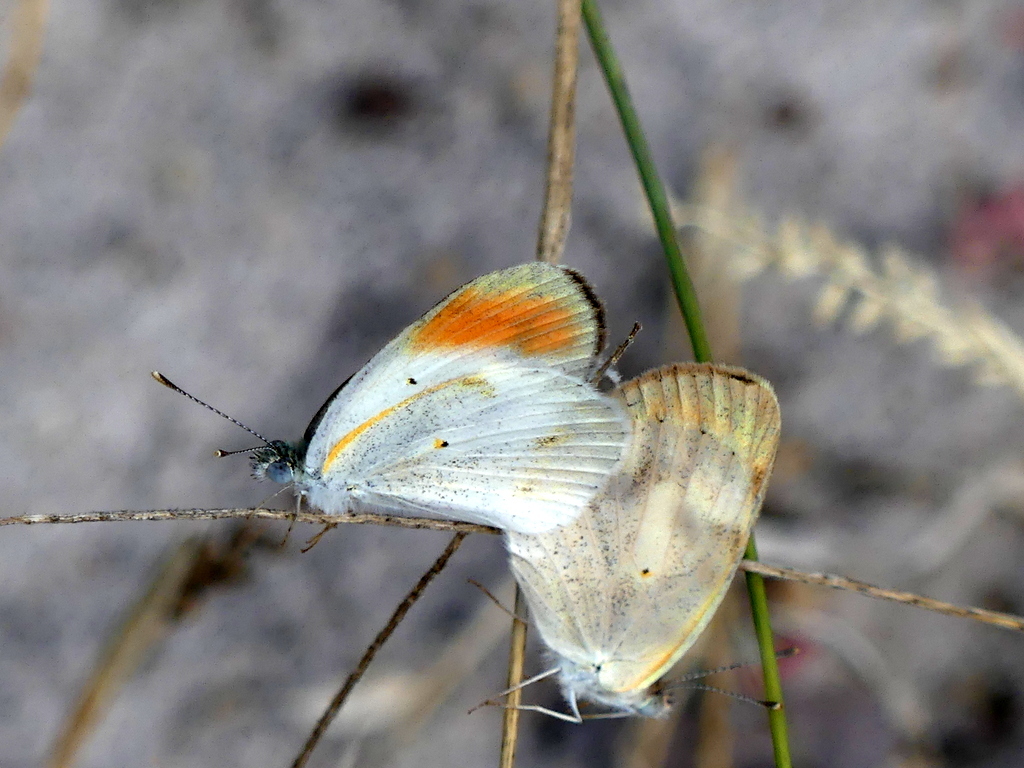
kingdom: Animalia
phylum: Arthropoda
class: Insecta
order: Lepidoptera
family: Pieridae
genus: Colotis
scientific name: Colotis evagore
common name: Desert orange-tip
